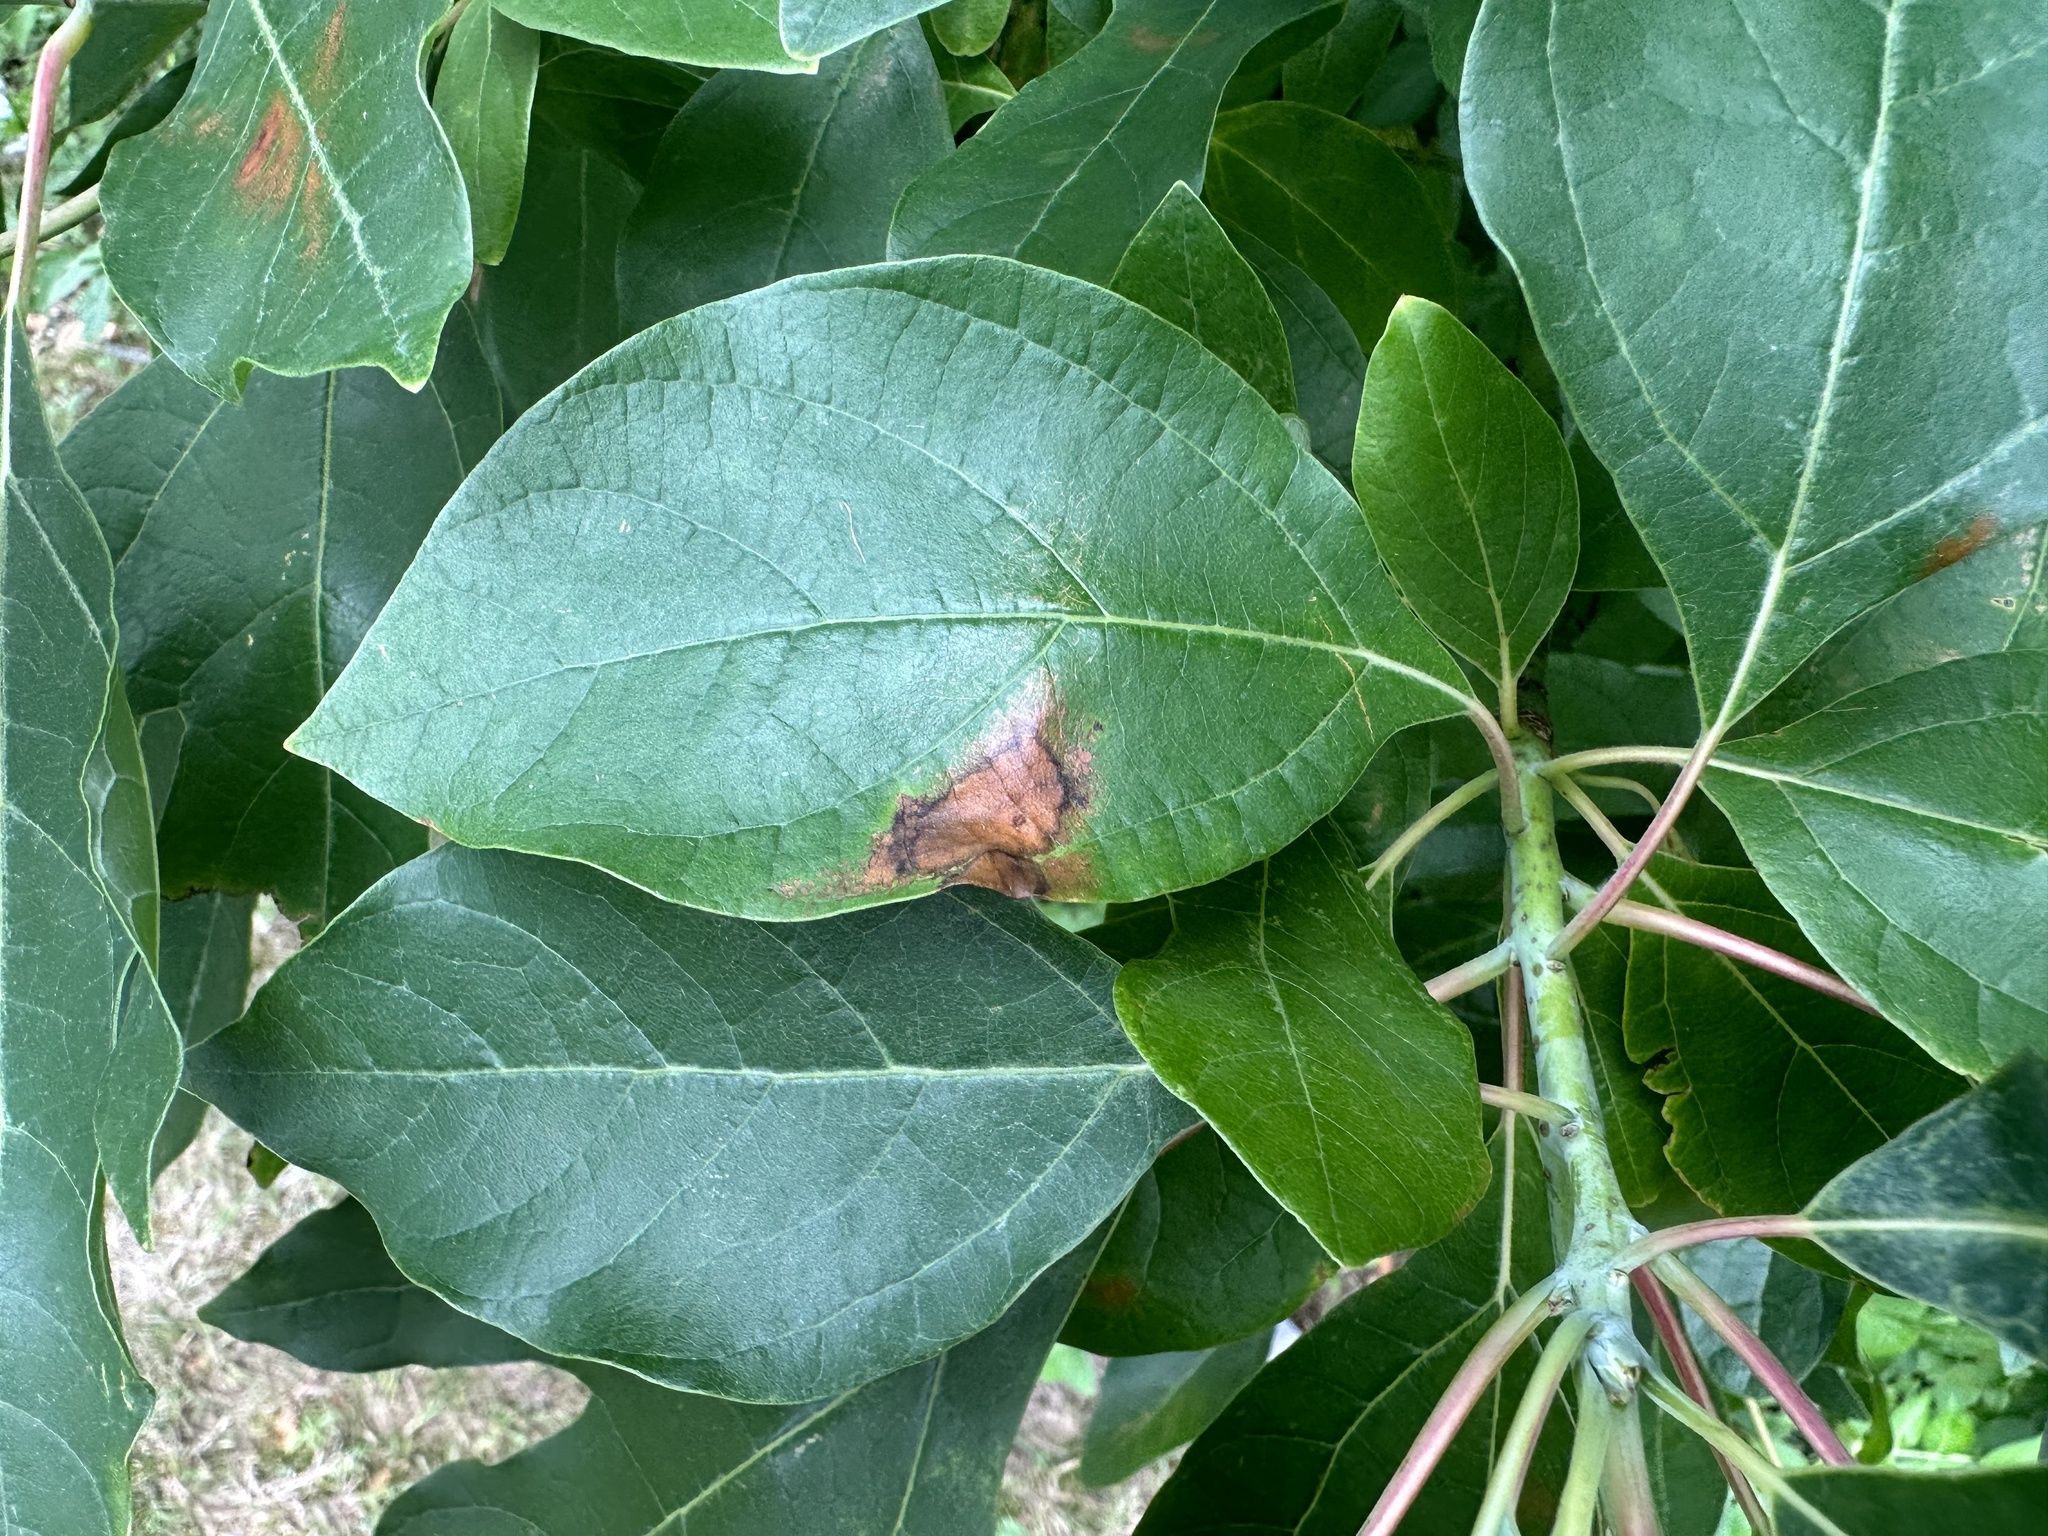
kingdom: Plantae
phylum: Tracheophyta
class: Magnoliopsida
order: Laurales
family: Lauraceae
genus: Sassafras
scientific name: Sassafras albidum
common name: Sassafras
